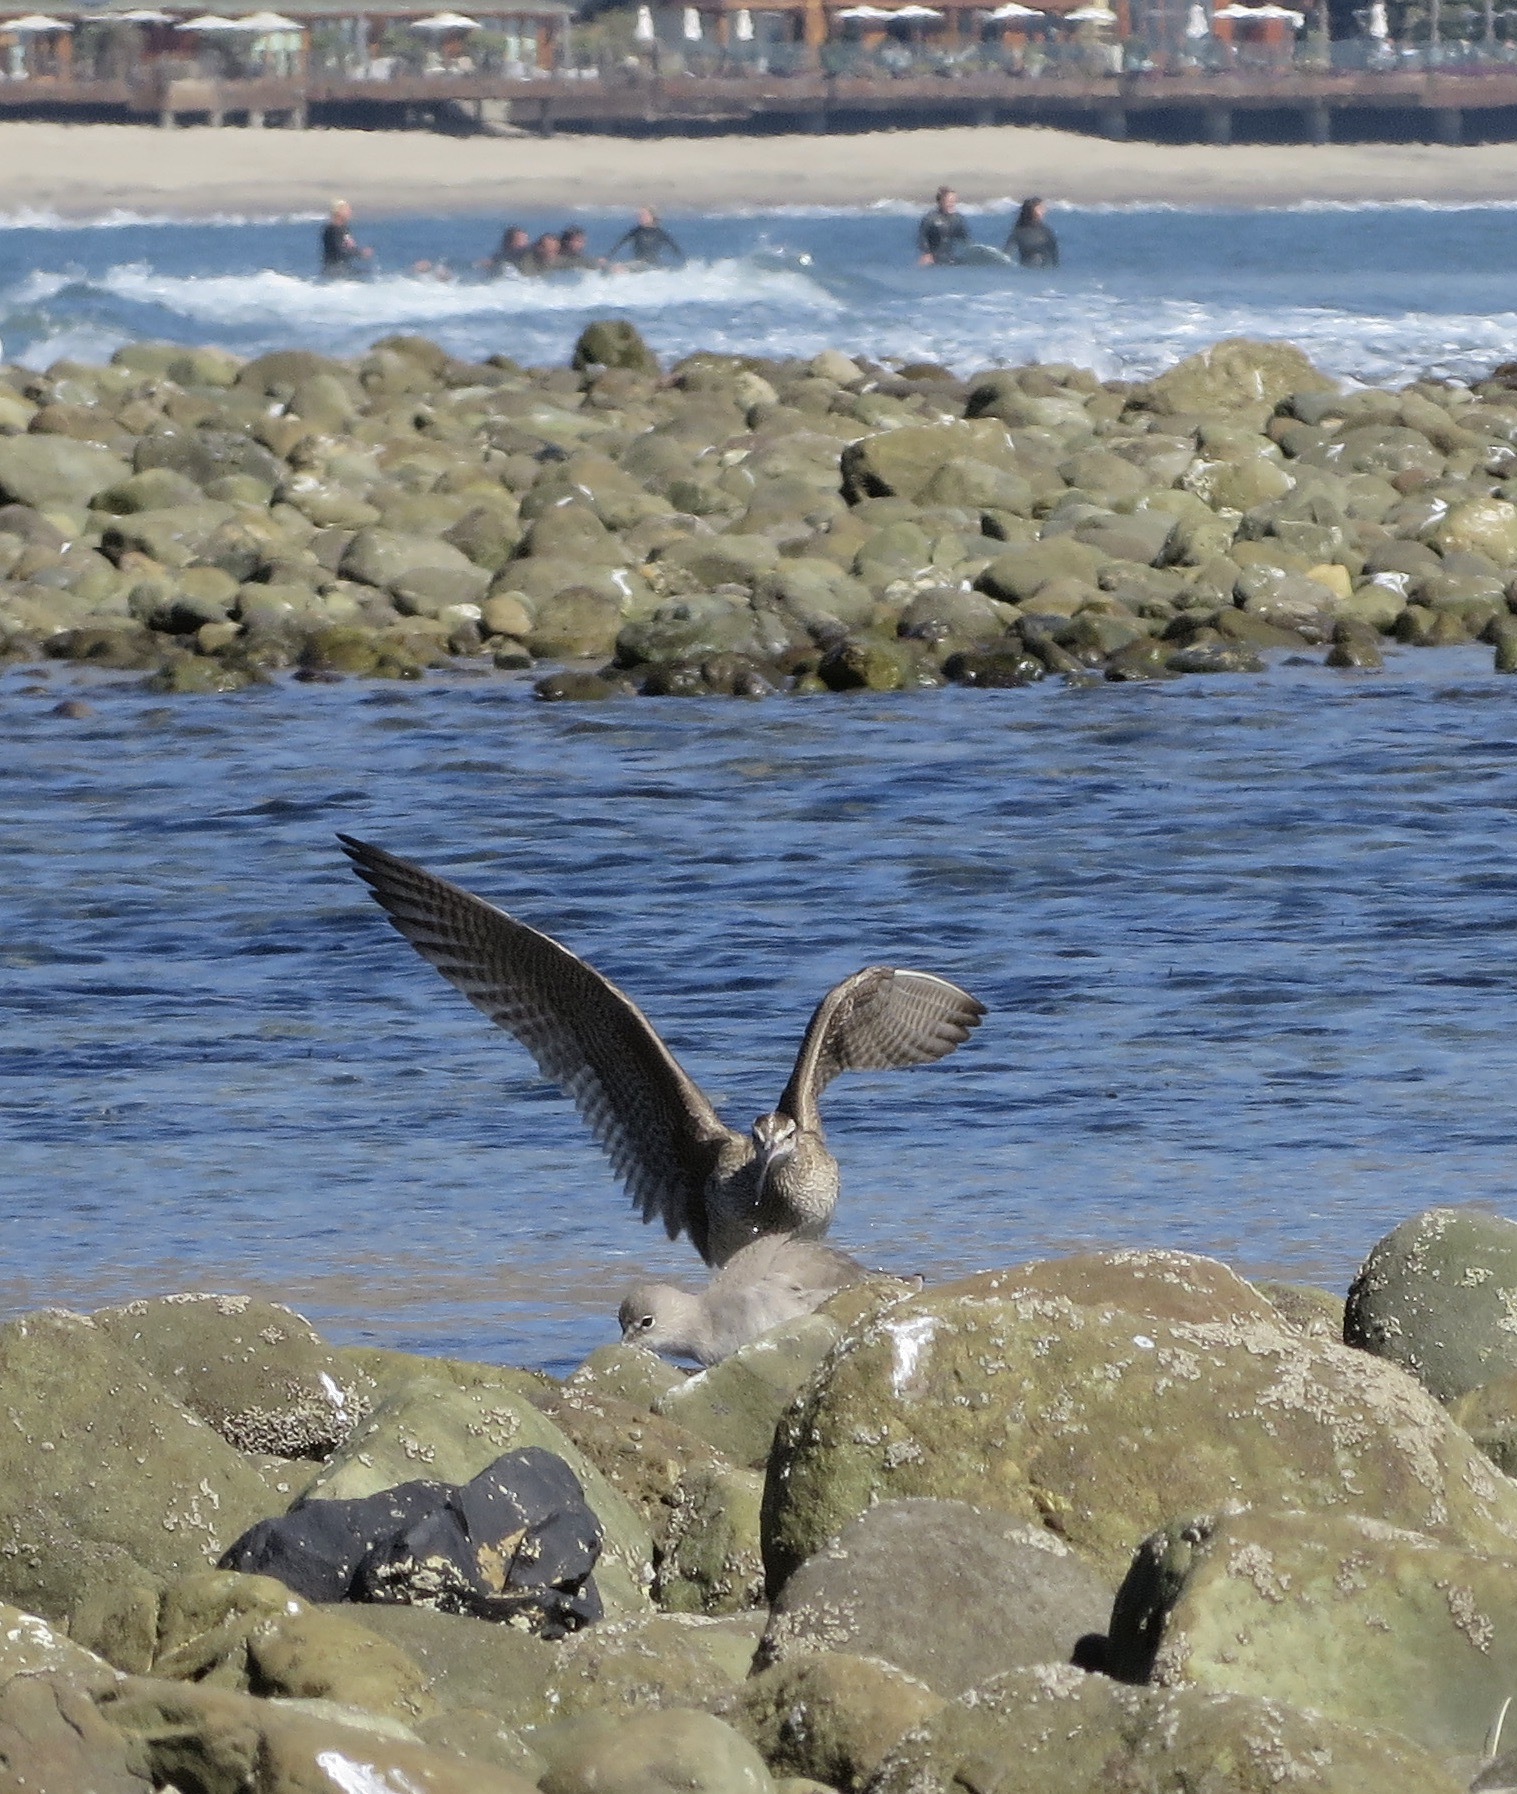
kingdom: Animalia
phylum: Chordata
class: Aves
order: Charadriiformes
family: Scolopacidae
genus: Numenius
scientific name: Numenius phaeopus
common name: Whimbrel
